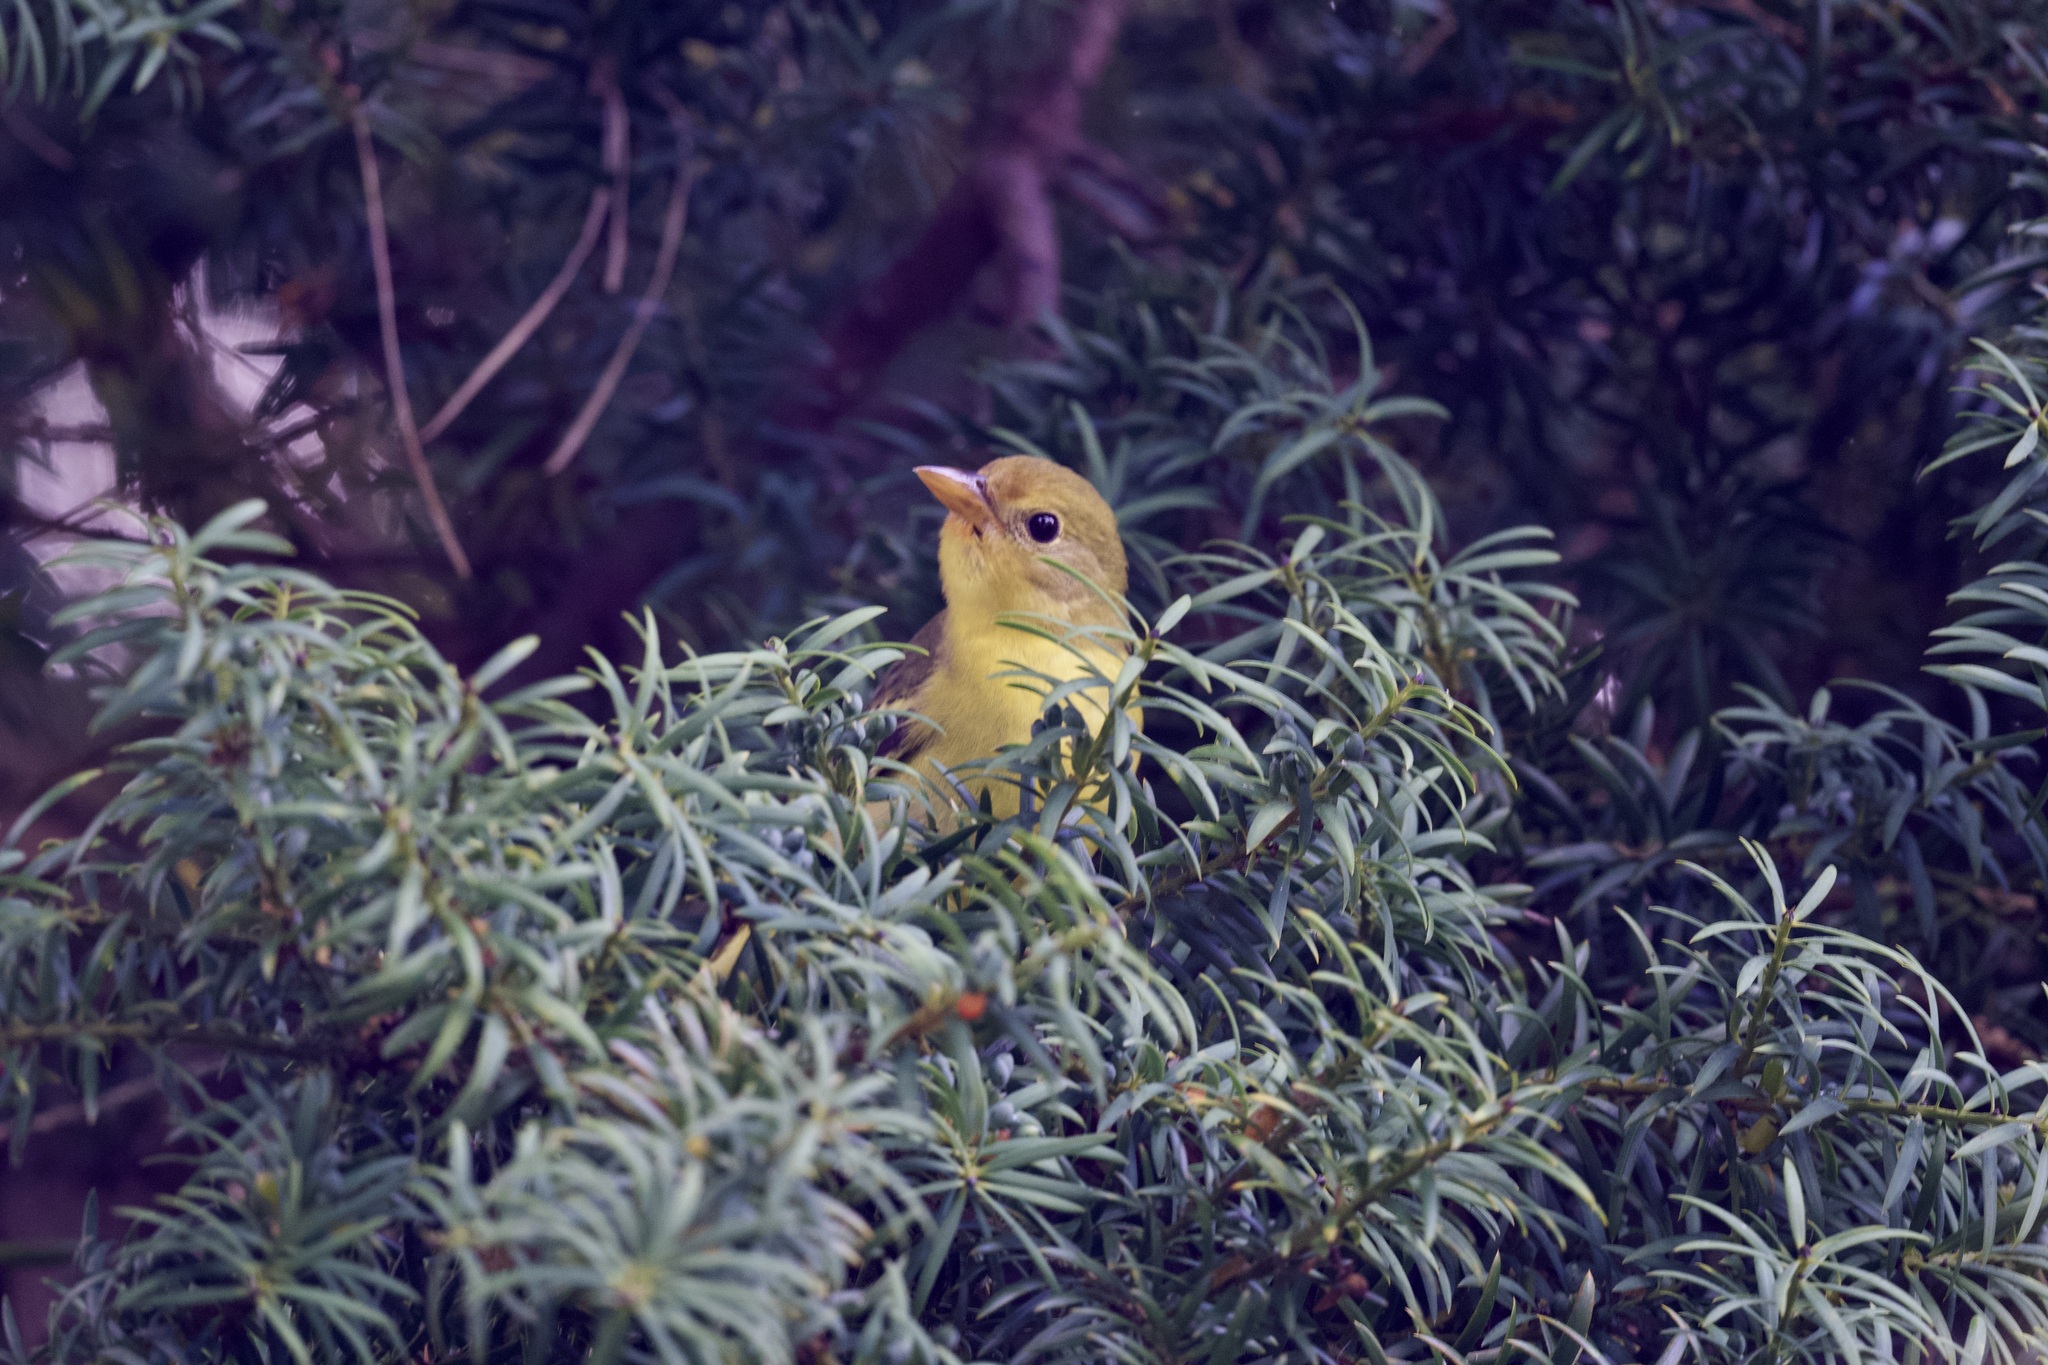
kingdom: Animalia
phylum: Chordata
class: Aves
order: Passeriformes
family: Cardinalidae
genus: Piranga
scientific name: Piranga ludoviciana
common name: Western tanager
